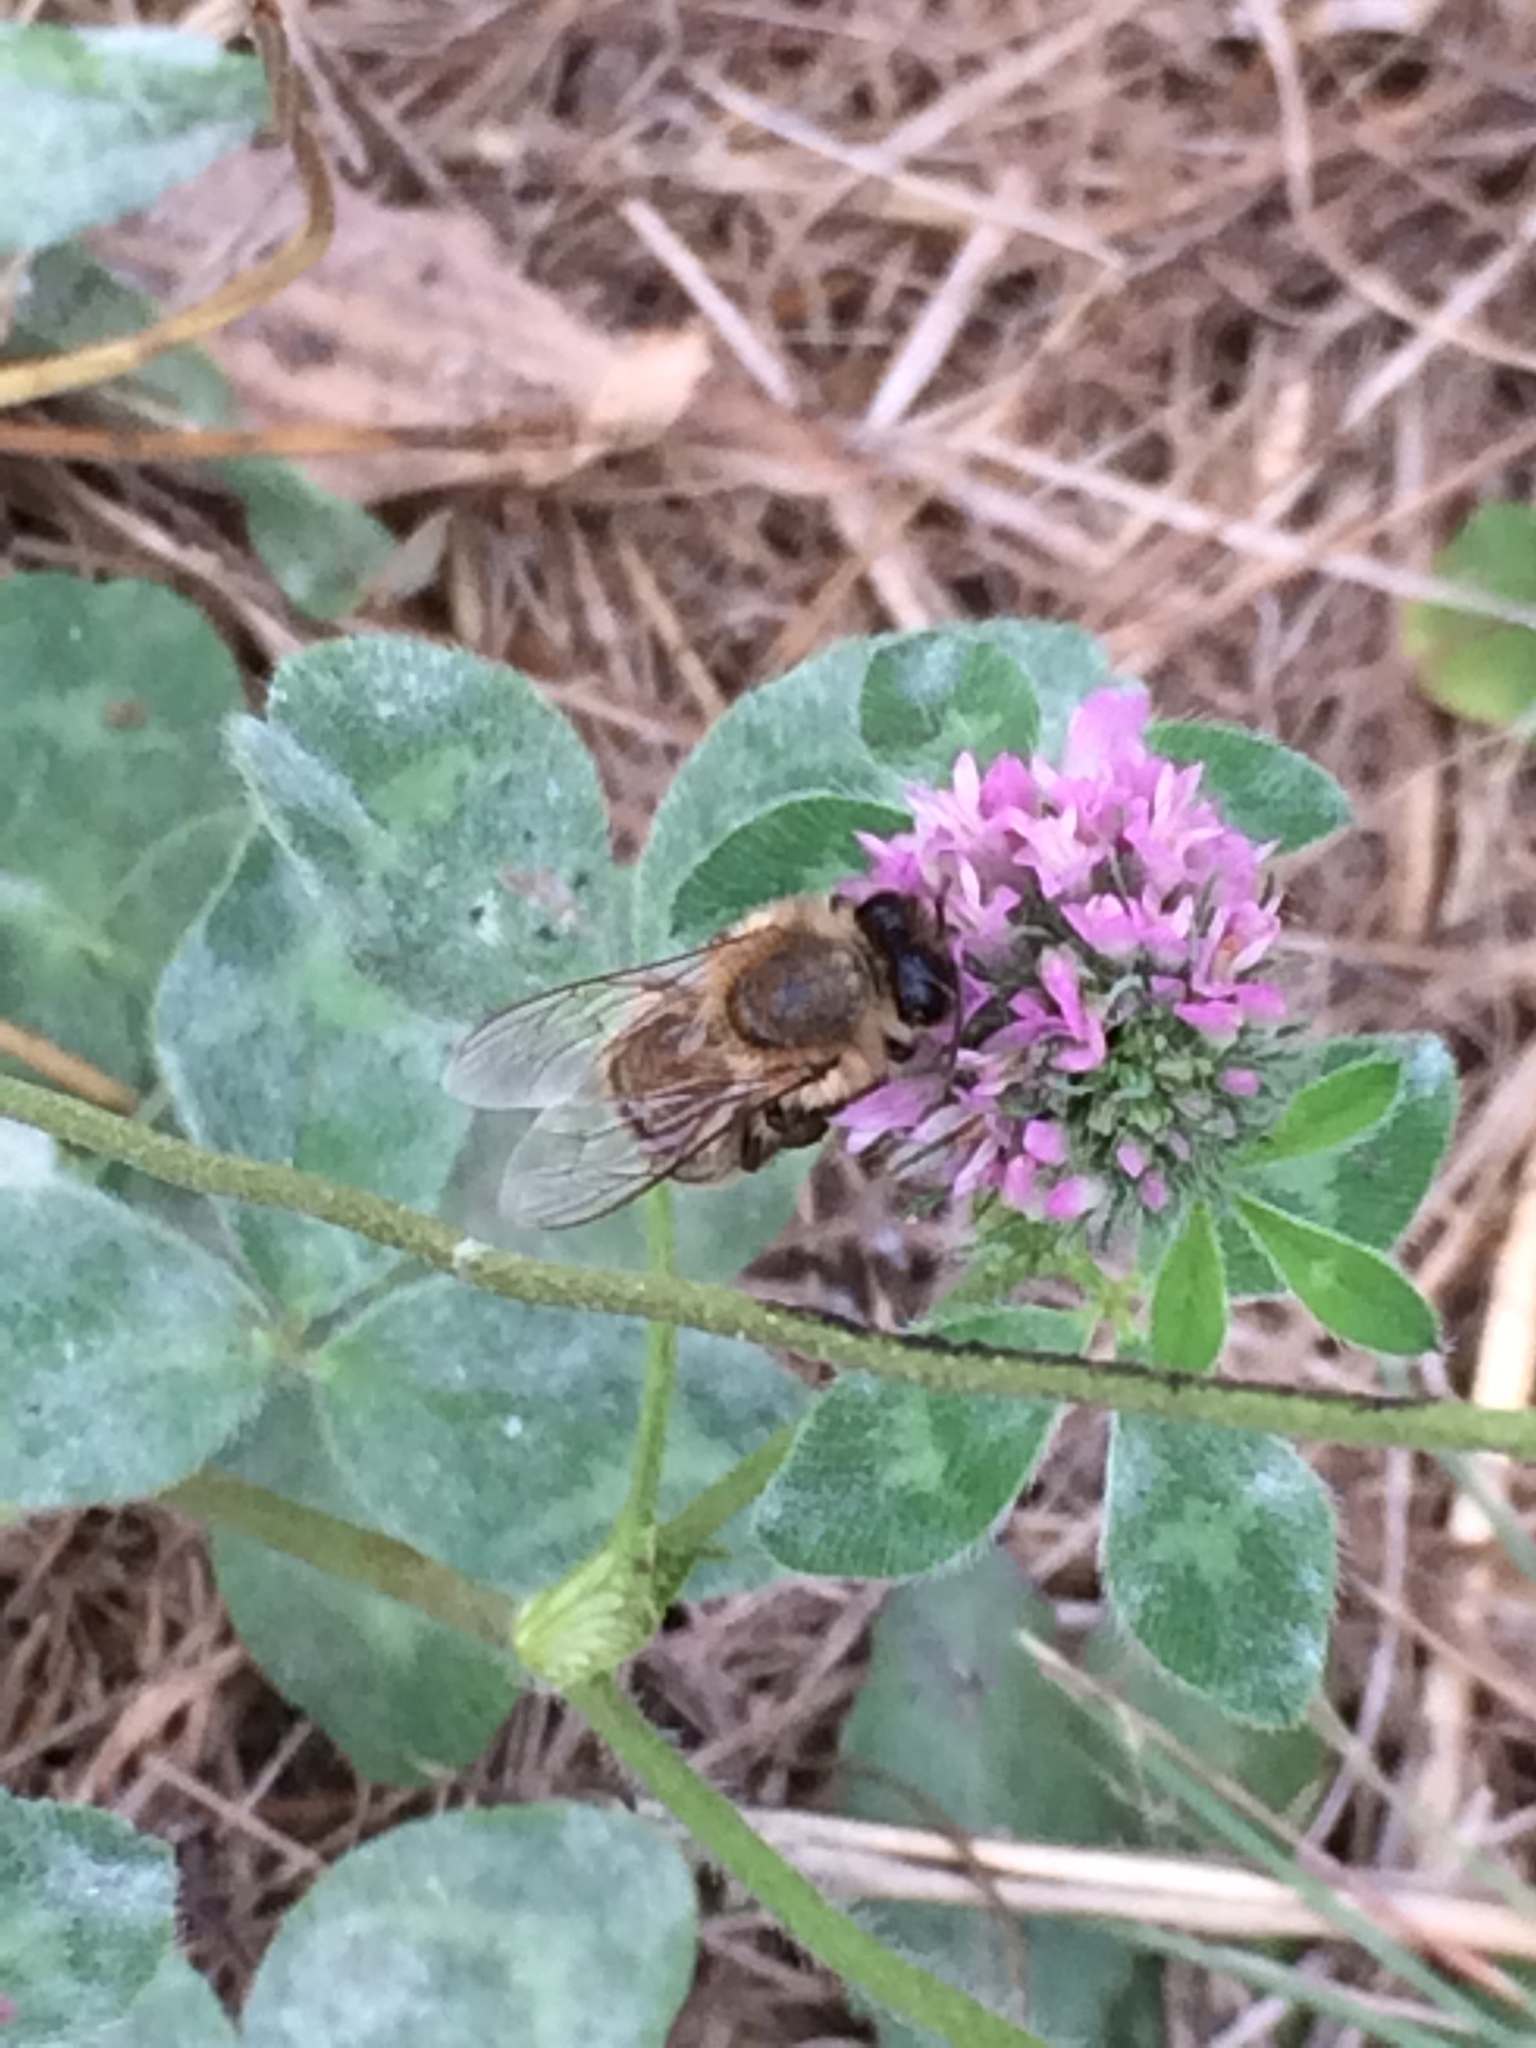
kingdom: Animalia
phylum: Arthropoda
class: Insecta
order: Hymenoptera
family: Apidae
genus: Apis
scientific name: Apis mellifera
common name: Honey bee
